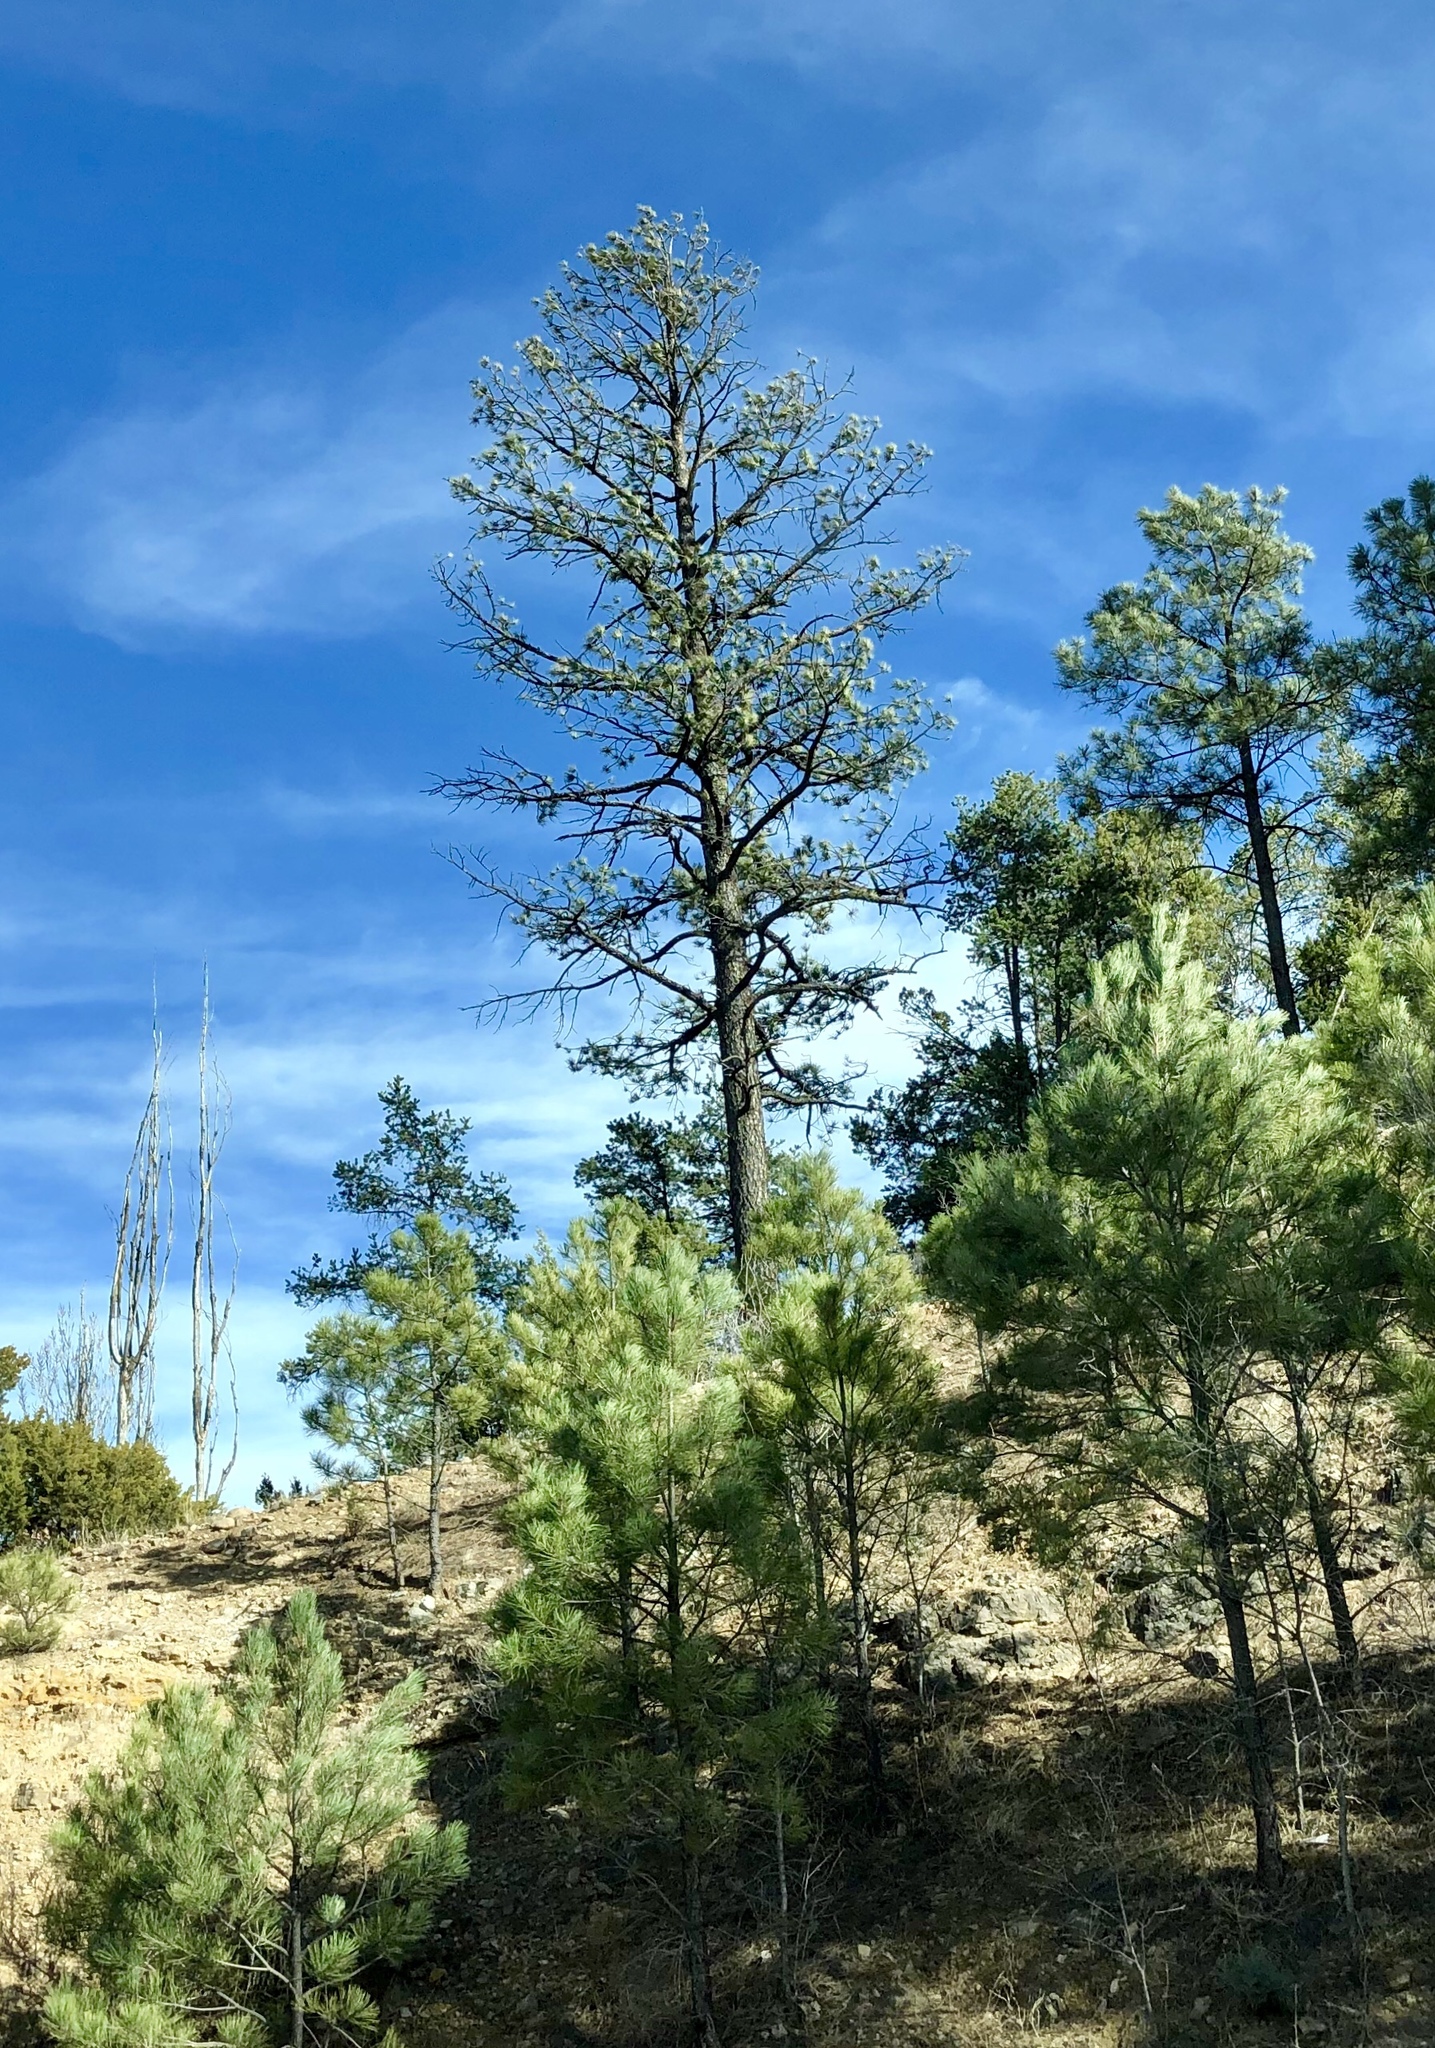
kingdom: Plantae
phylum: Tracheophyta
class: Pinopsida
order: Pinales
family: Pinaceae
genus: Pinus
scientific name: Pinus ponderosa
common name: Western yellow-pine
